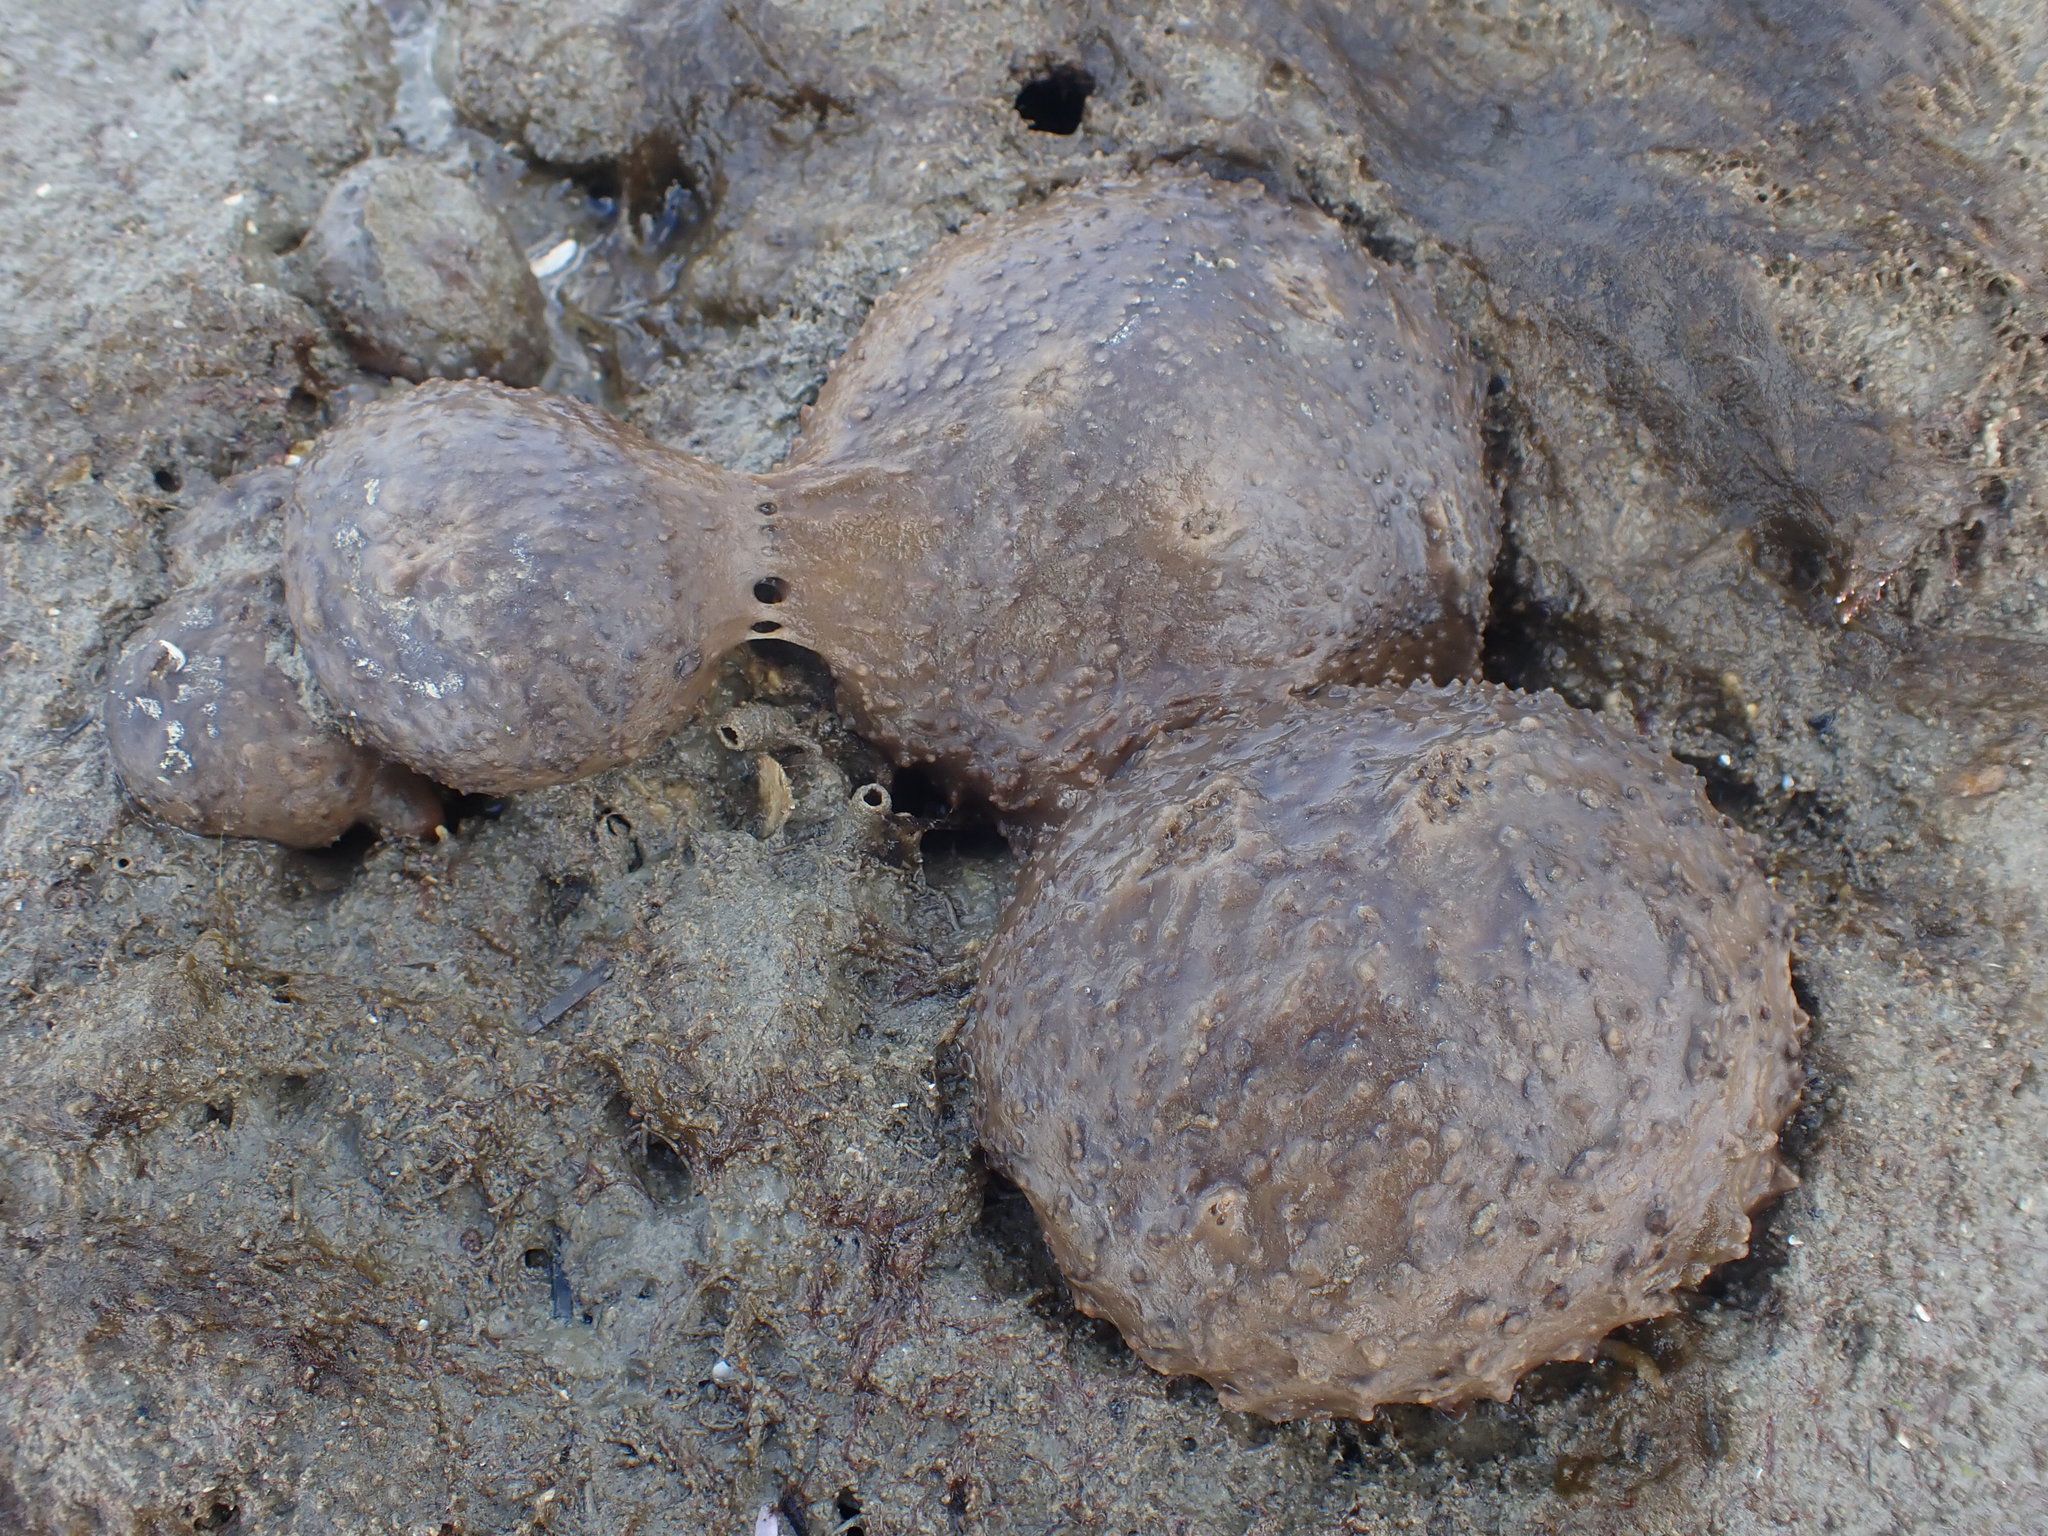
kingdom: Animalia
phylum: Porifera
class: Demospongiae
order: Suberitida
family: Suberitidae
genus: Aaptos
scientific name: Aaptos tenta
